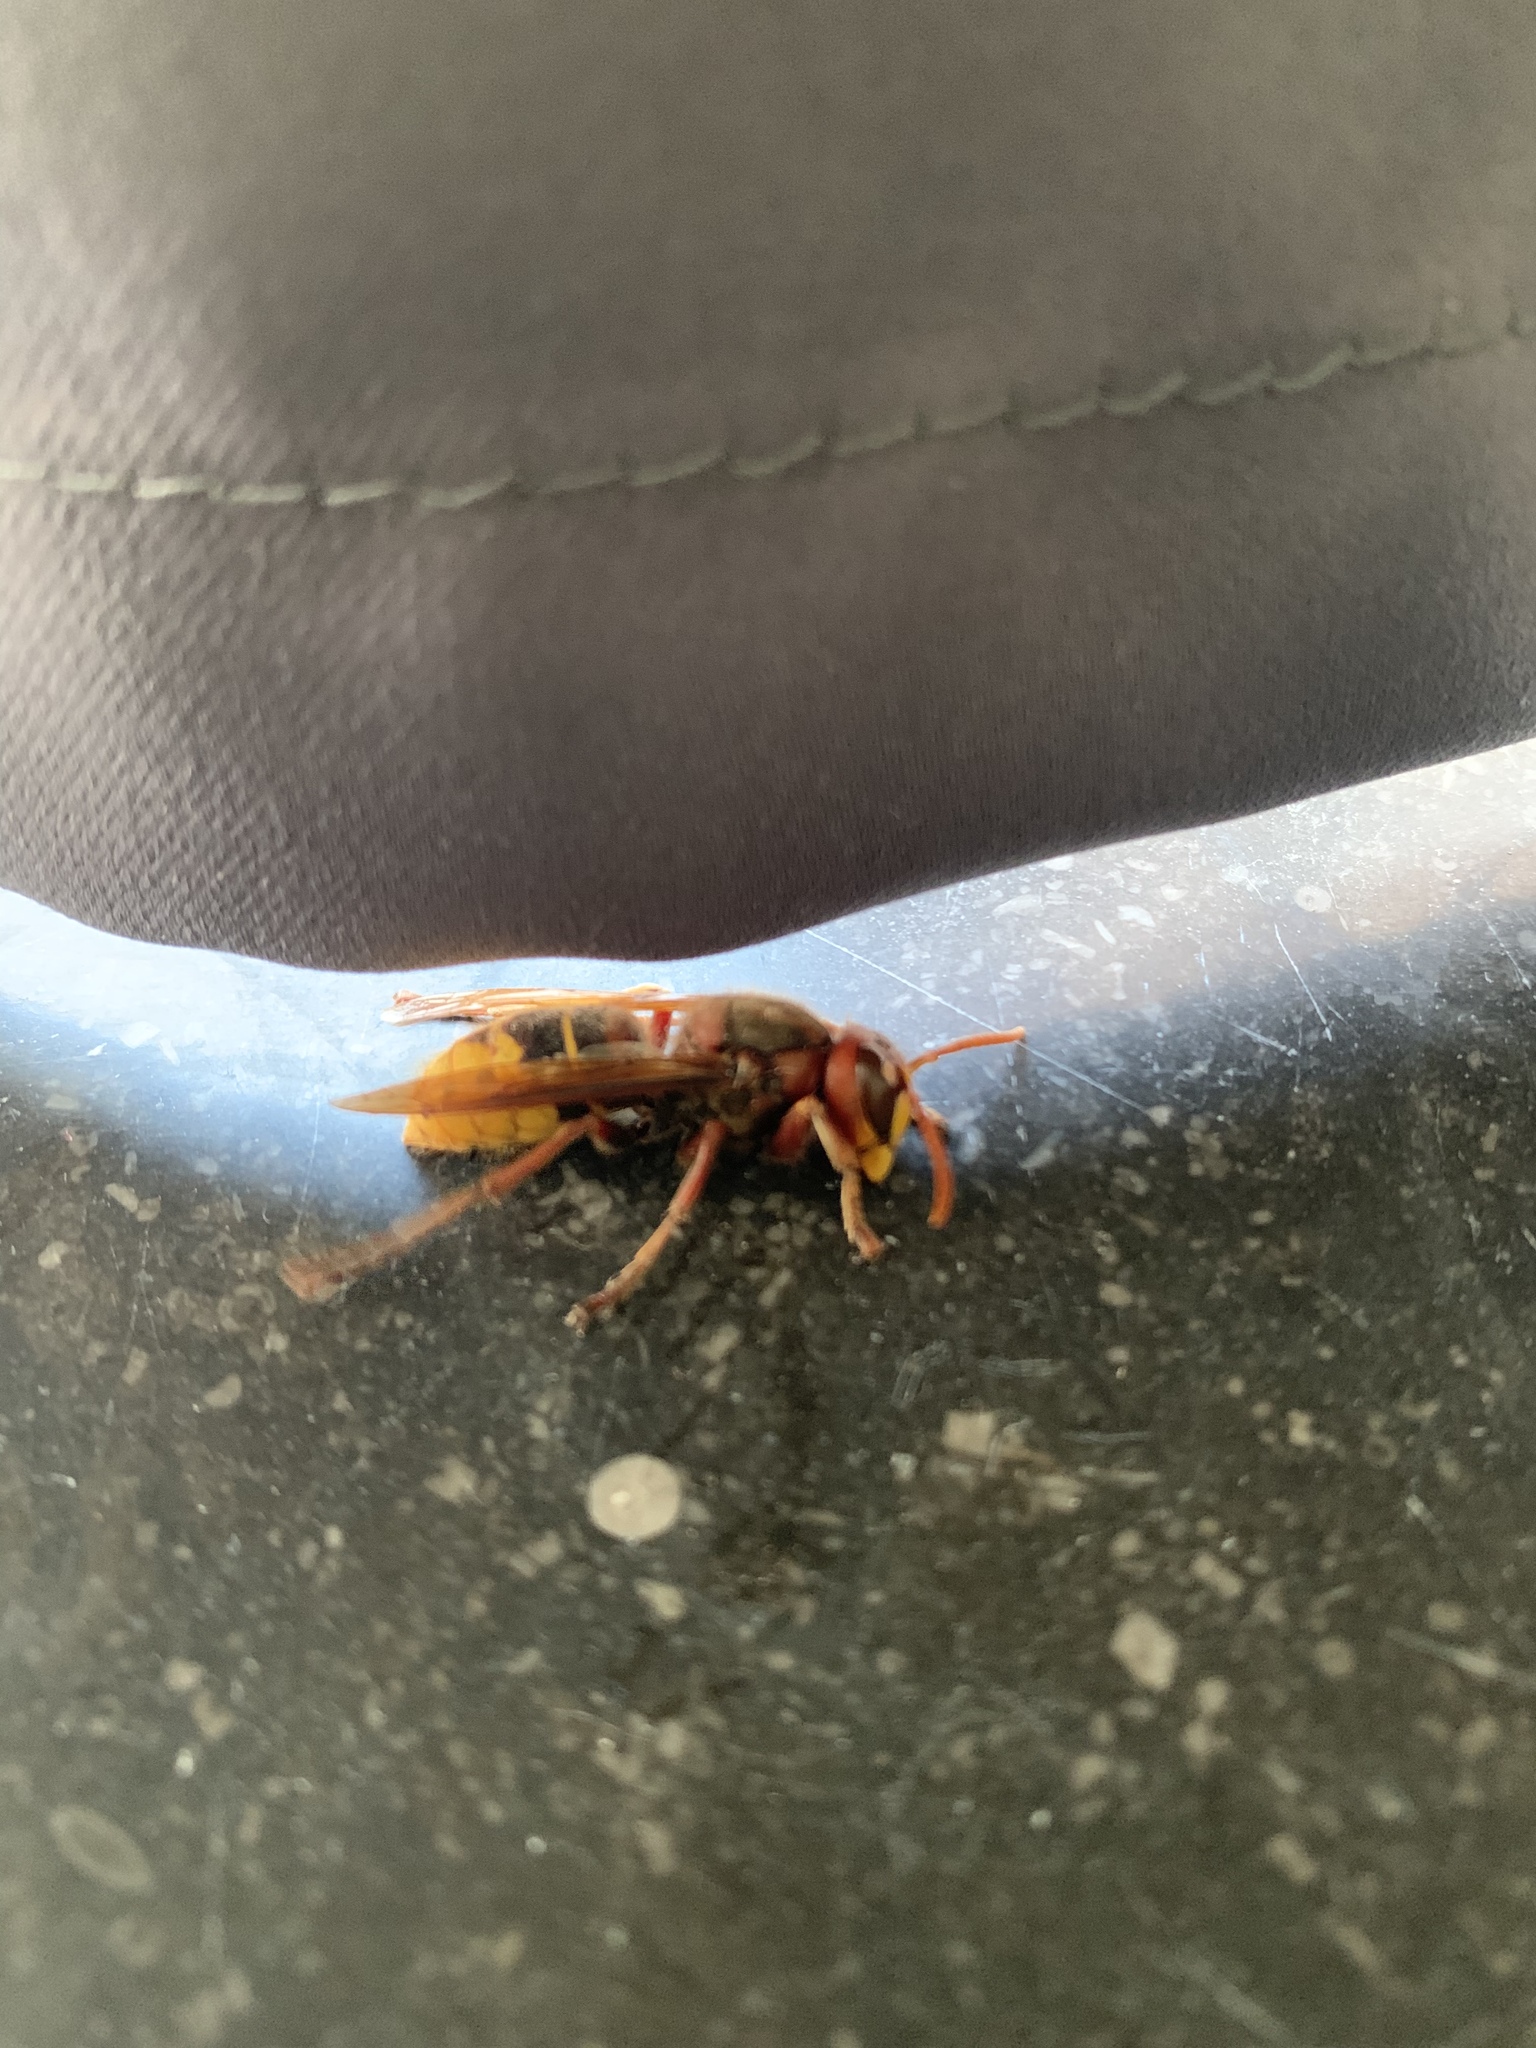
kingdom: Animalia
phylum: Arthropoda
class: Insecta
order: Hymenoptera
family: Vespidae
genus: Vespa
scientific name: Vespa crabro
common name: Hornet
